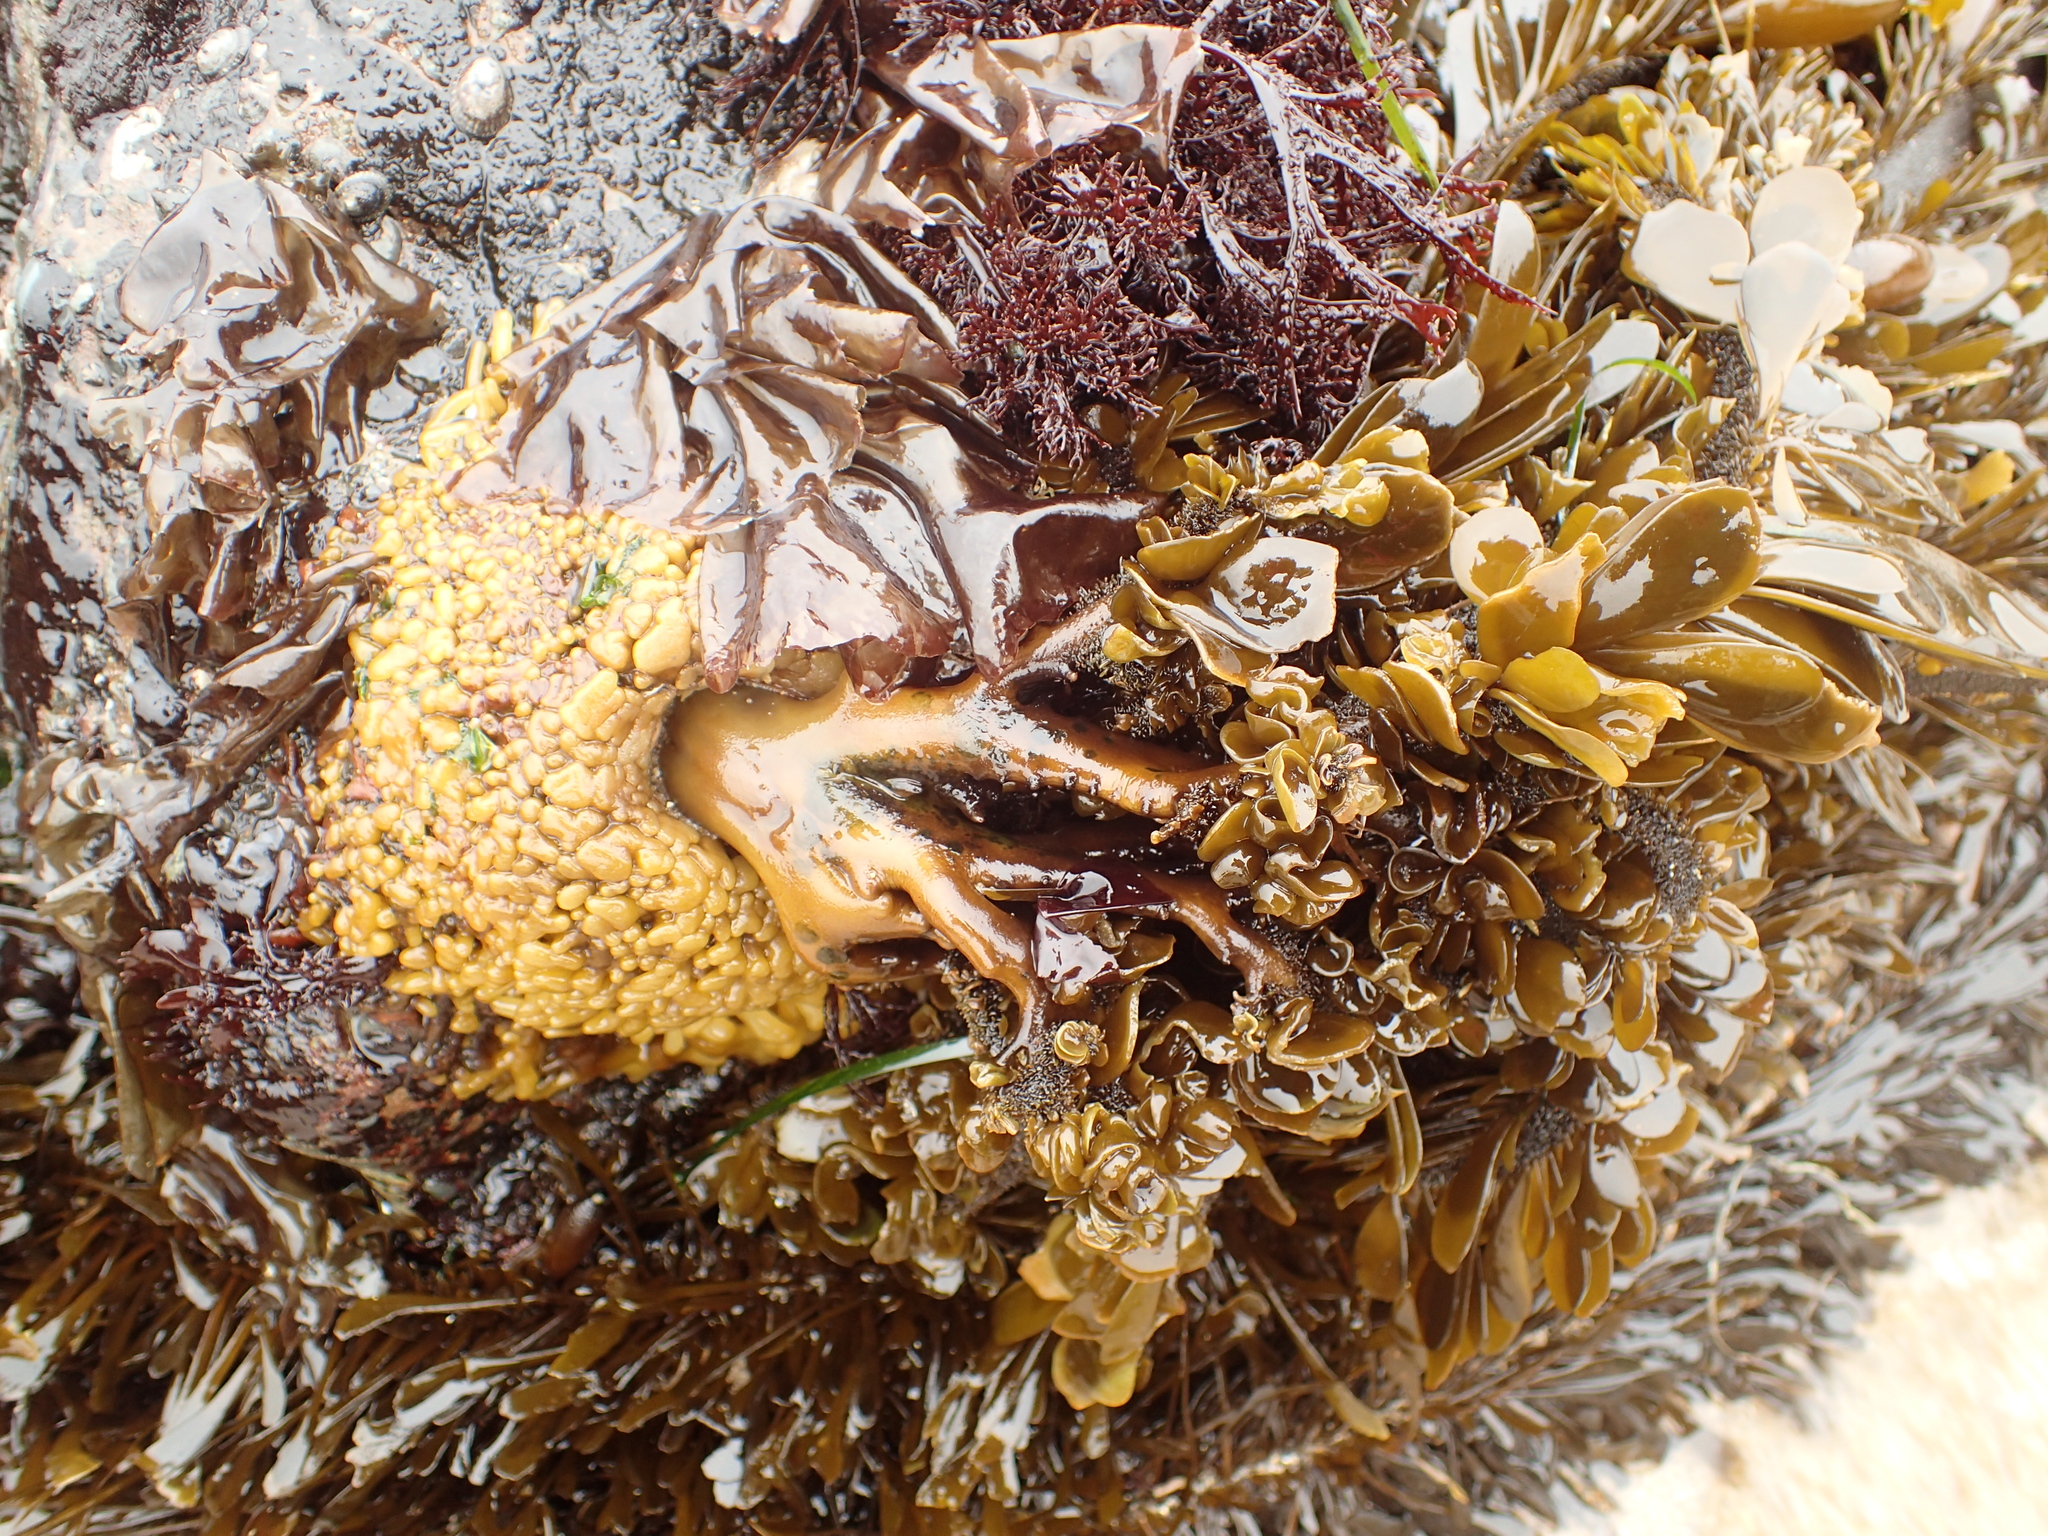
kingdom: Chromista
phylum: Ochrophyta
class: Phaeophyceae
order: Laminariales
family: Lessoniaceae
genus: Egregia
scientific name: Egregia menziesii
